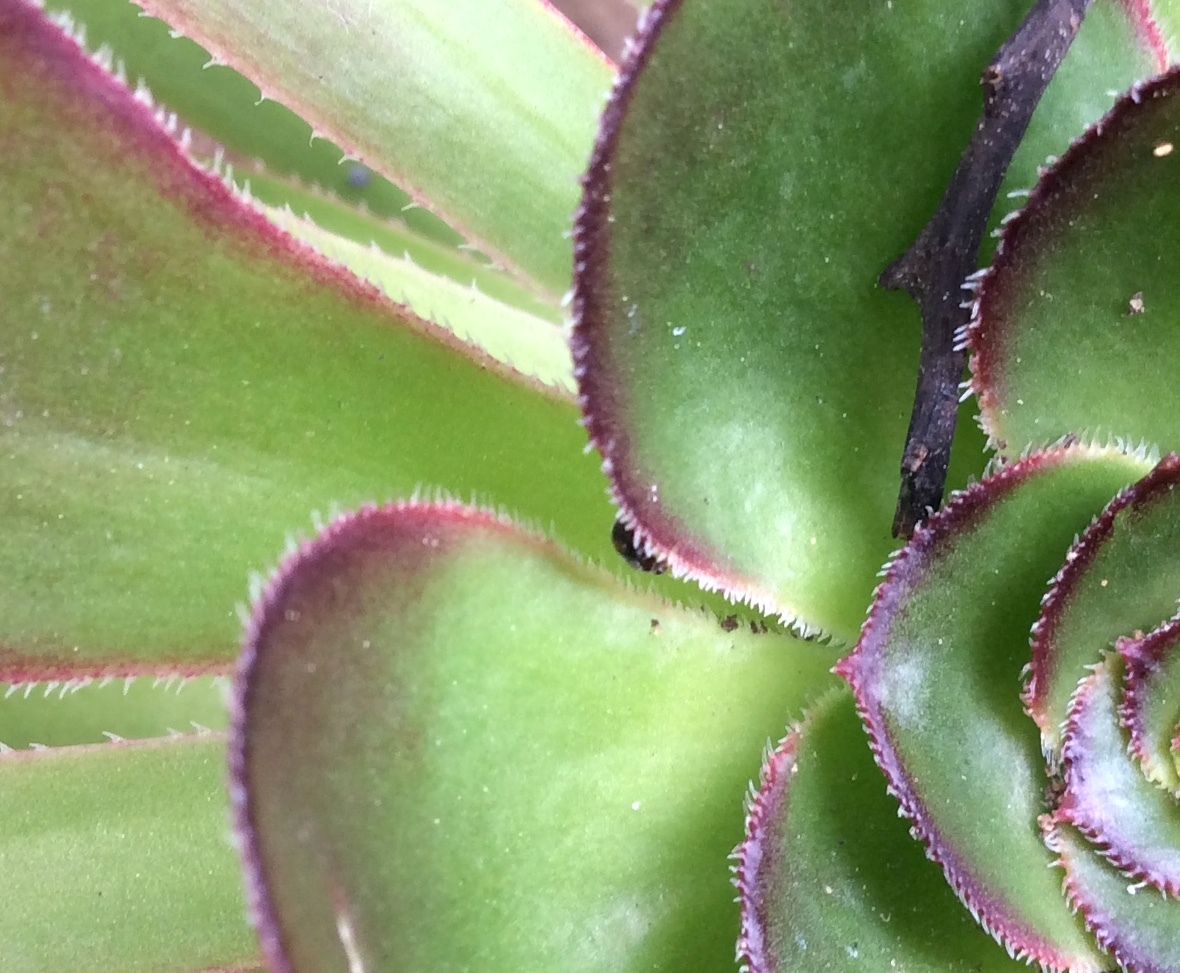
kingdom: Animalia
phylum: Arthropoda
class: Insecta
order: Coleoptera
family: Coccinellidae
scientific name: Coccinellidae
